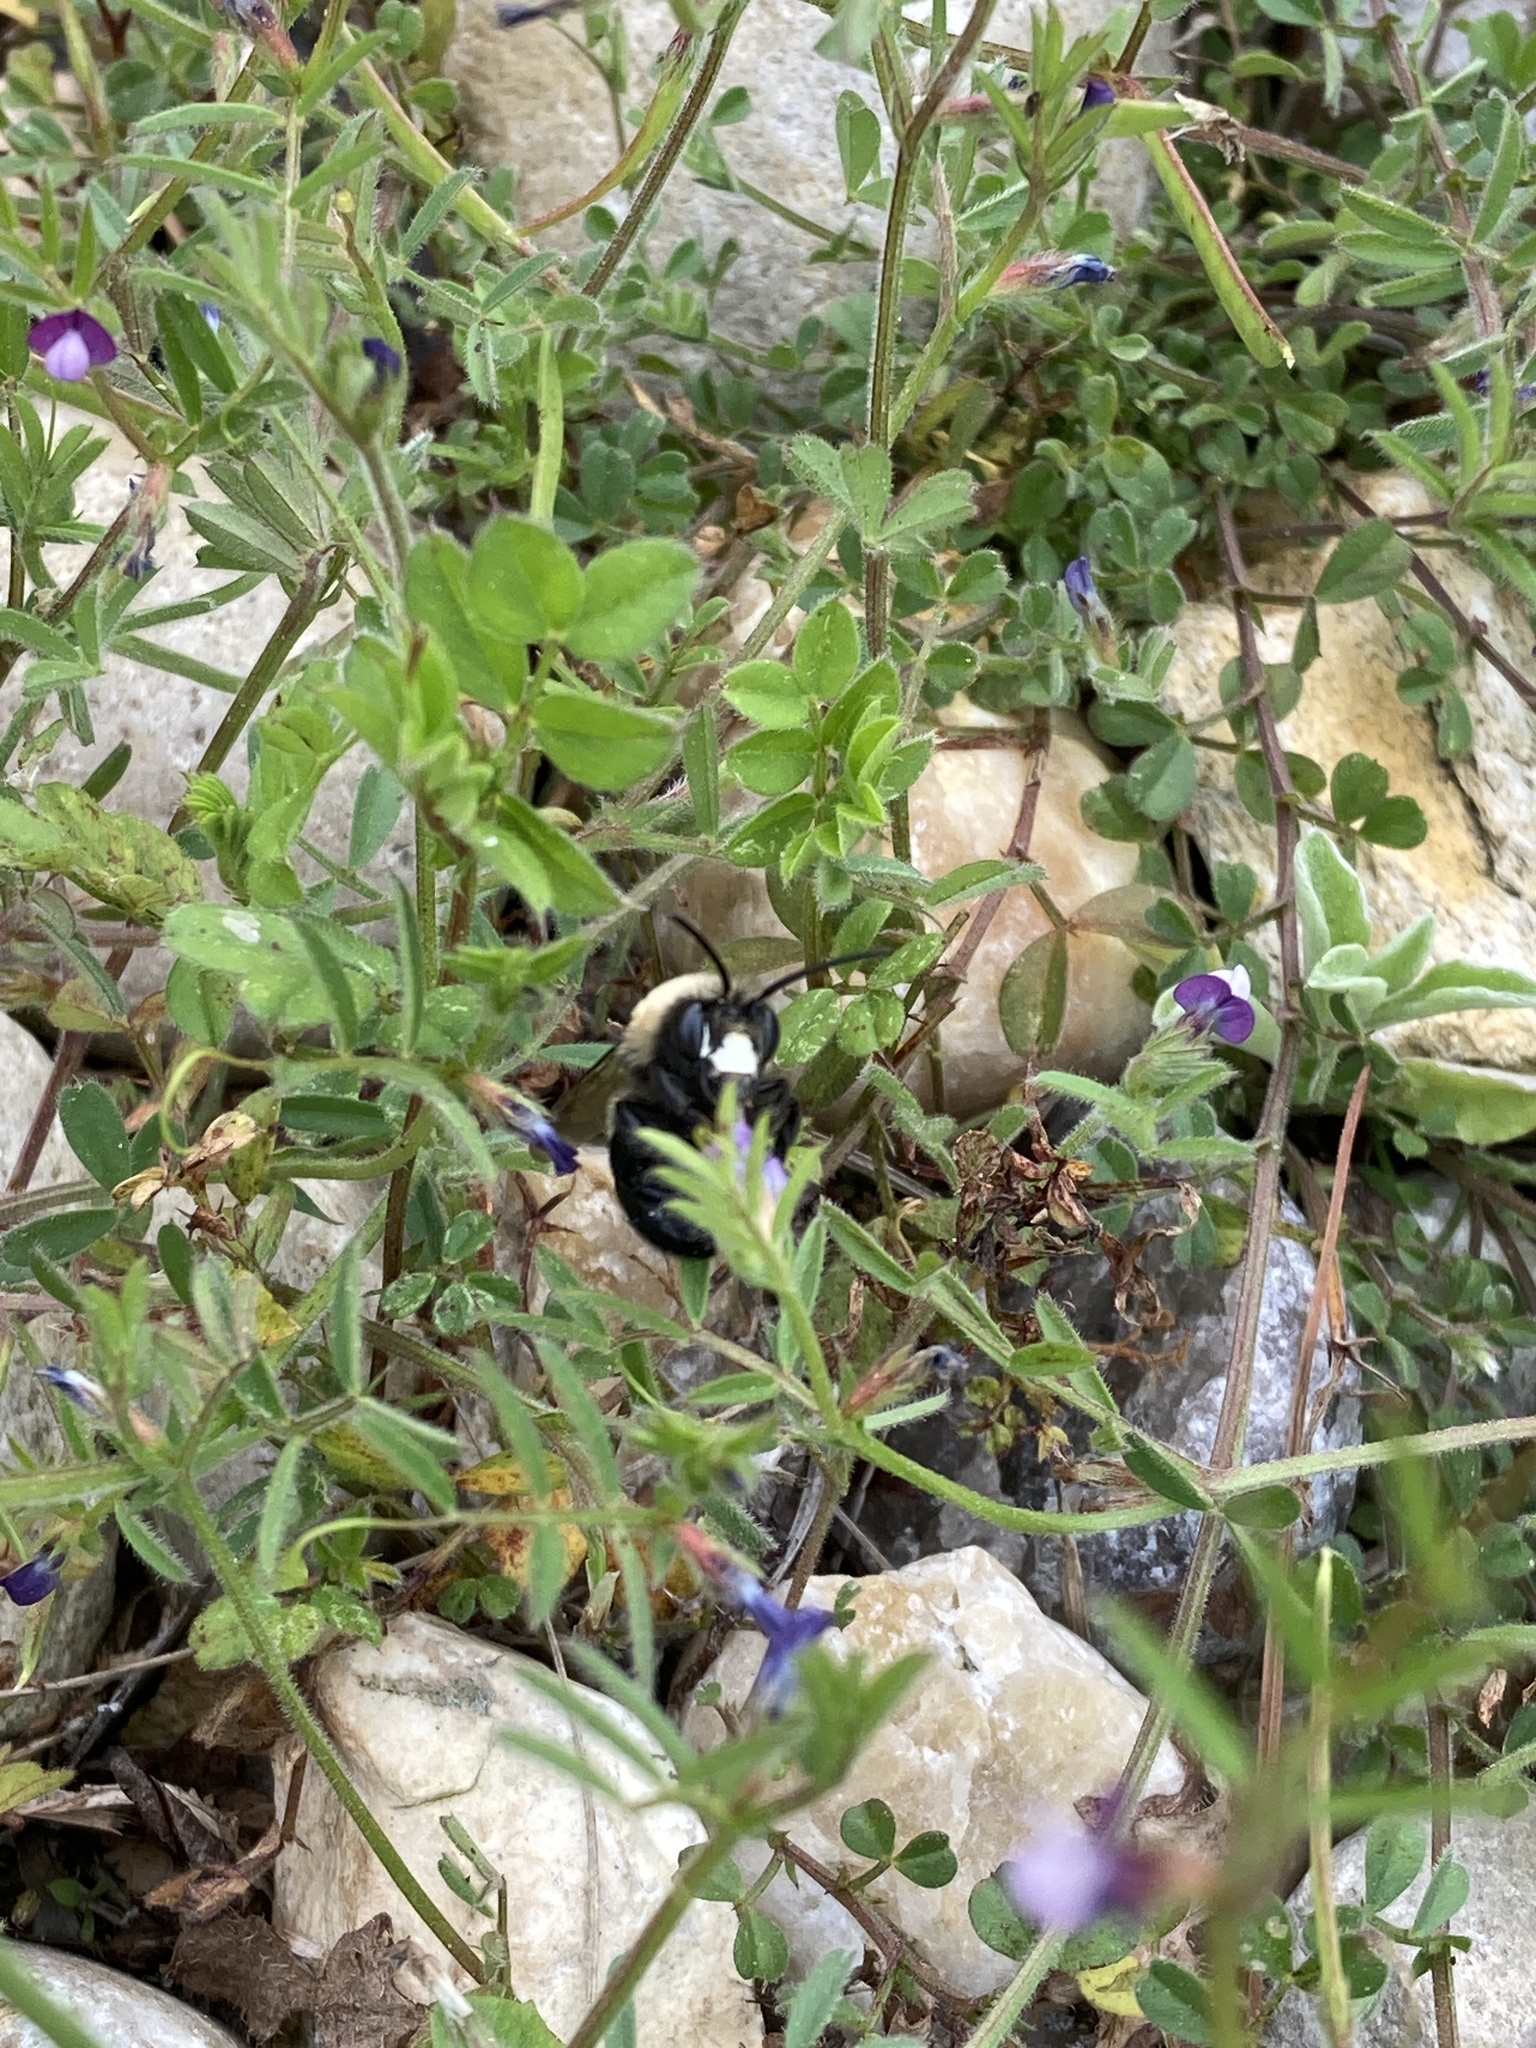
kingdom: Animalia
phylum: Arthropoda
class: Insecta
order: Hymenoptera
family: Apidae
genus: Habropoda
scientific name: Habropoda laboriosa
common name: Southeastern blueberry bee
